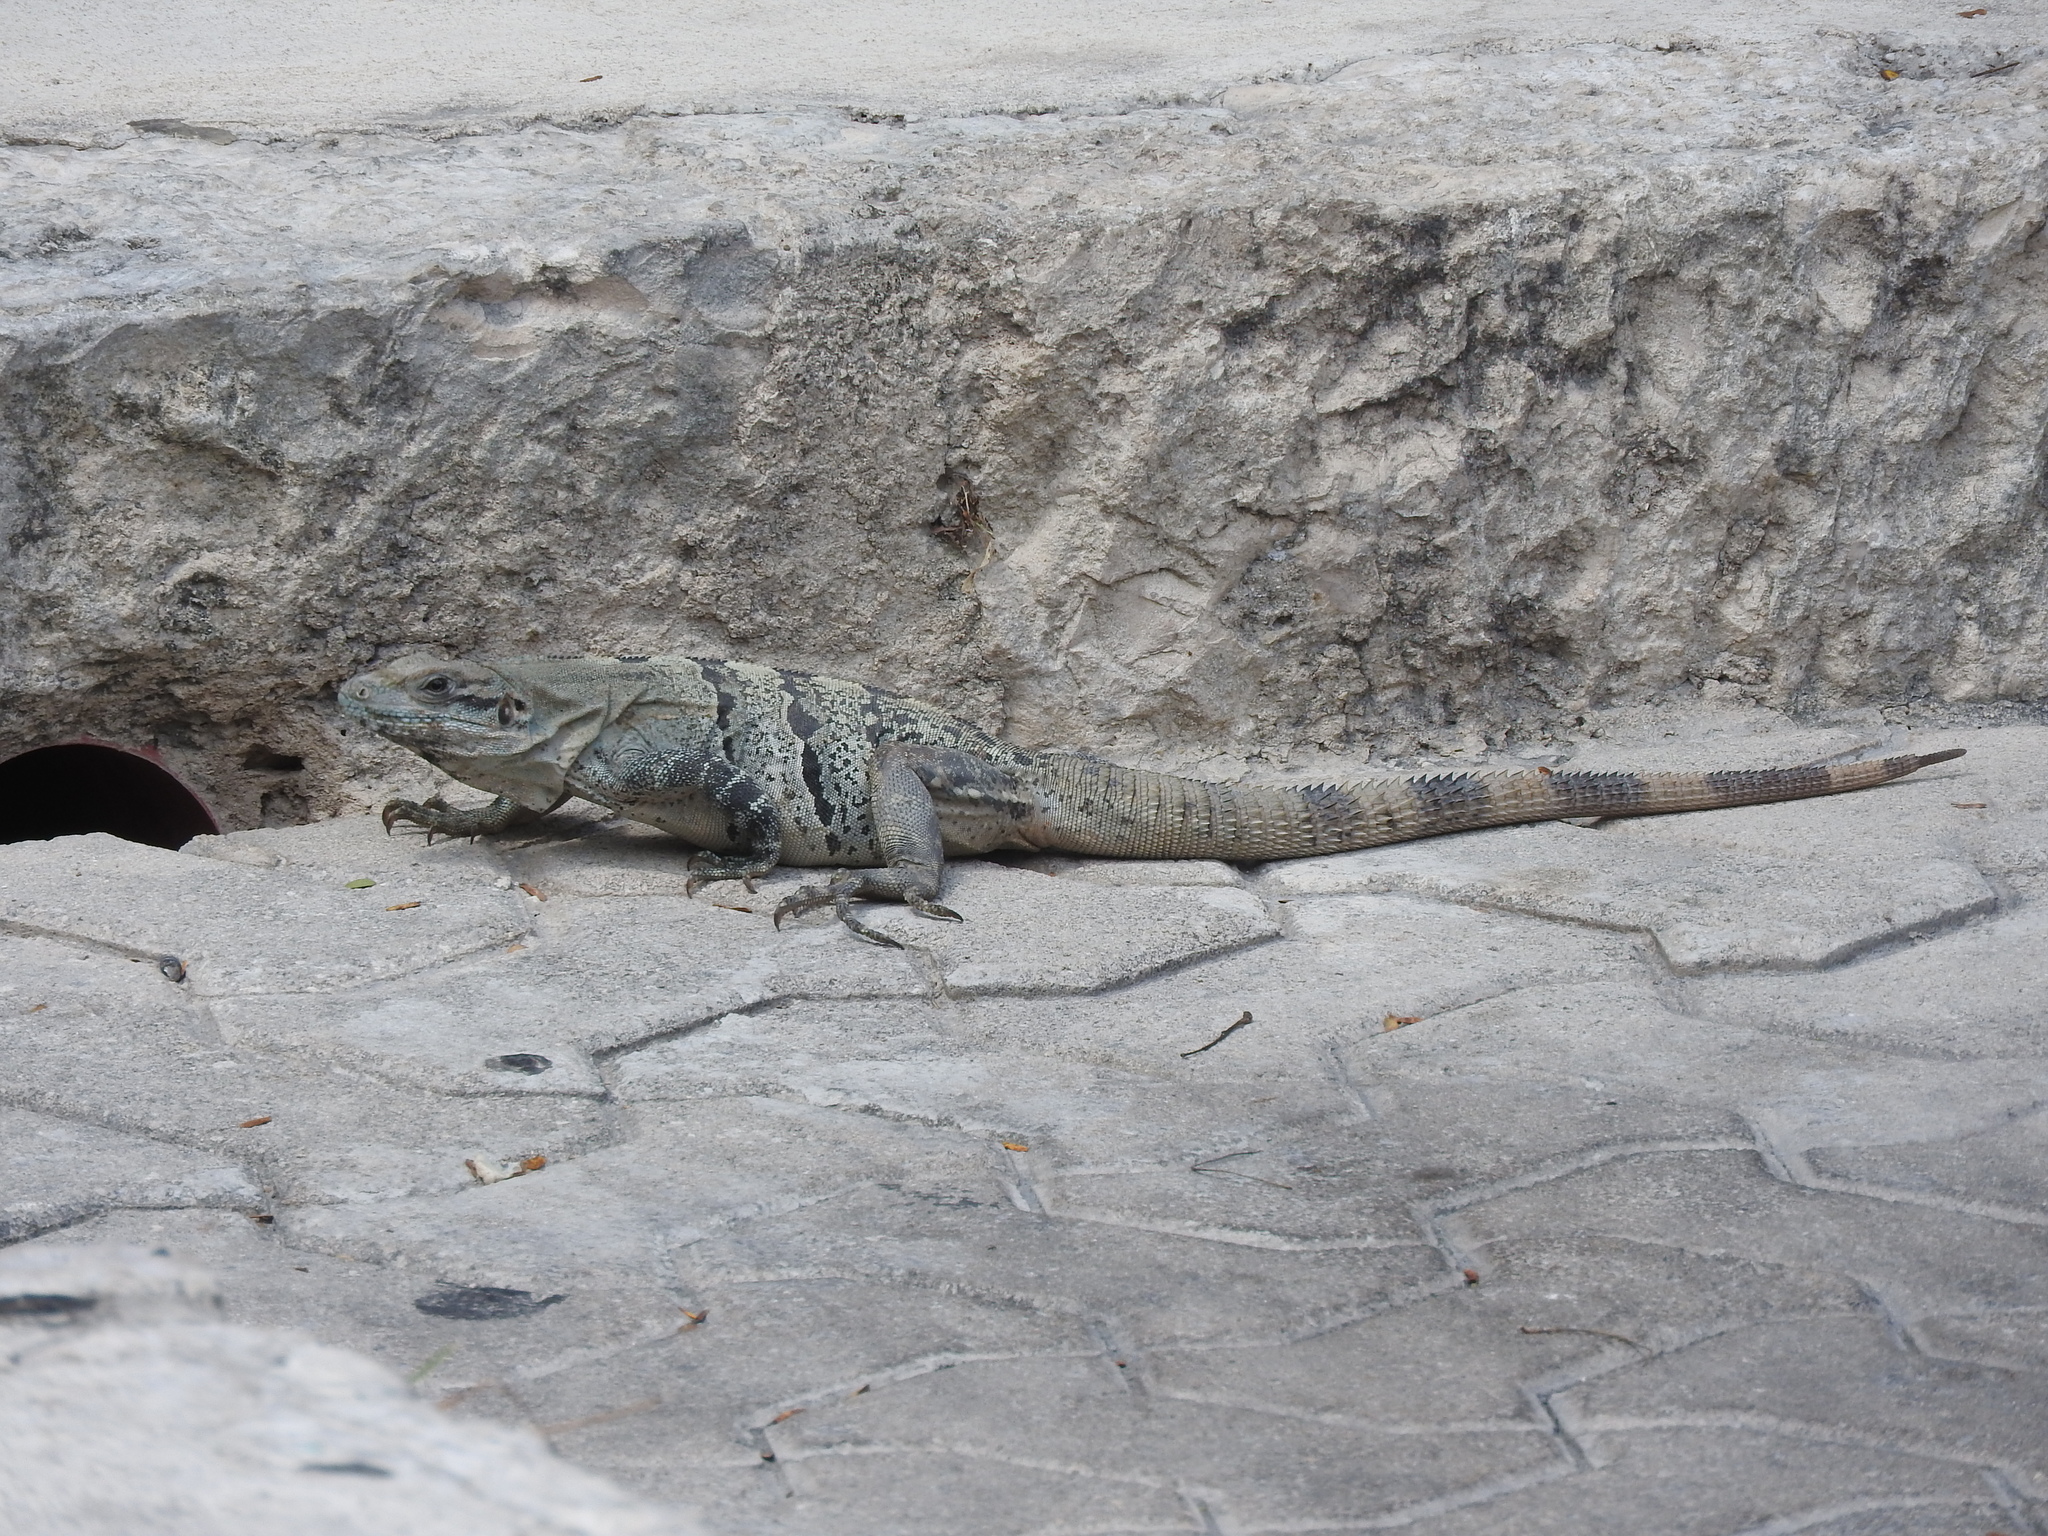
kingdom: Animalia
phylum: Chordata
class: Squamata
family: Iguanidae
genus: Ctenosaura
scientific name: Ctenosaura similis
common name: Black spiny-tailed iguana
